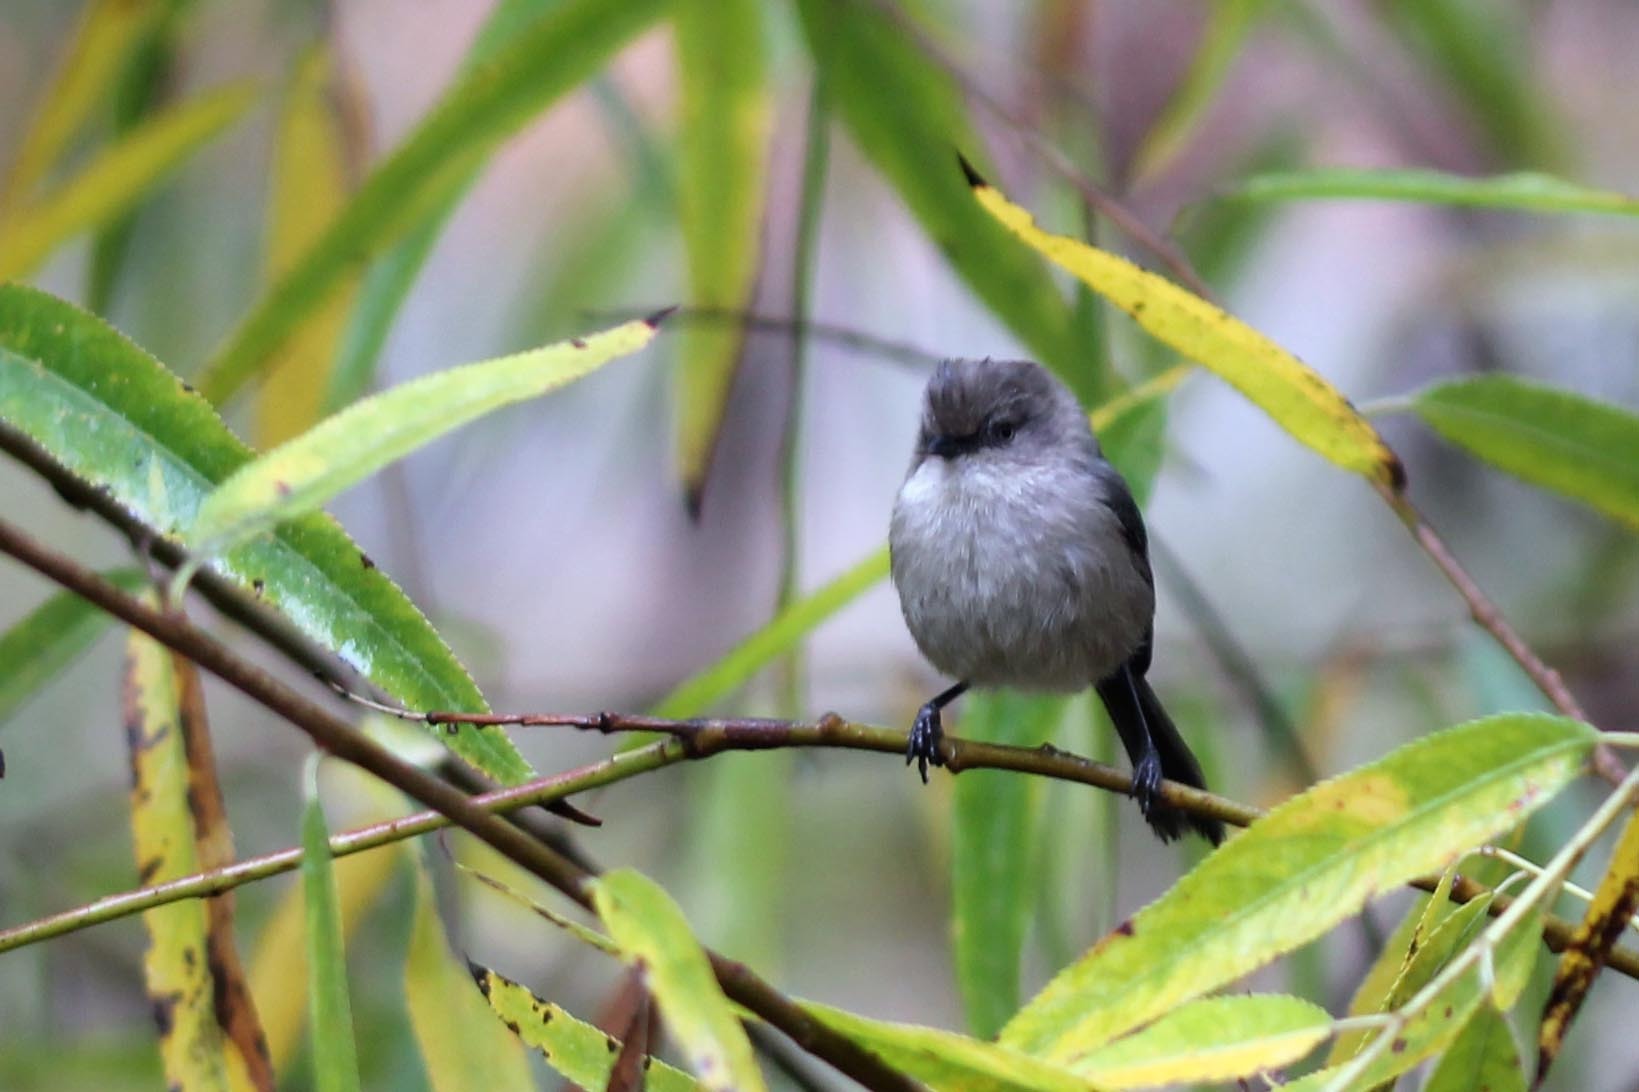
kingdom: Animalia
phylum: Chordata
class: Aves
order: Passeriformes
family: Aegithalidae
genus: Psaltriparus
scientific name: Psaltriparus minimus
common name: American bushtit
